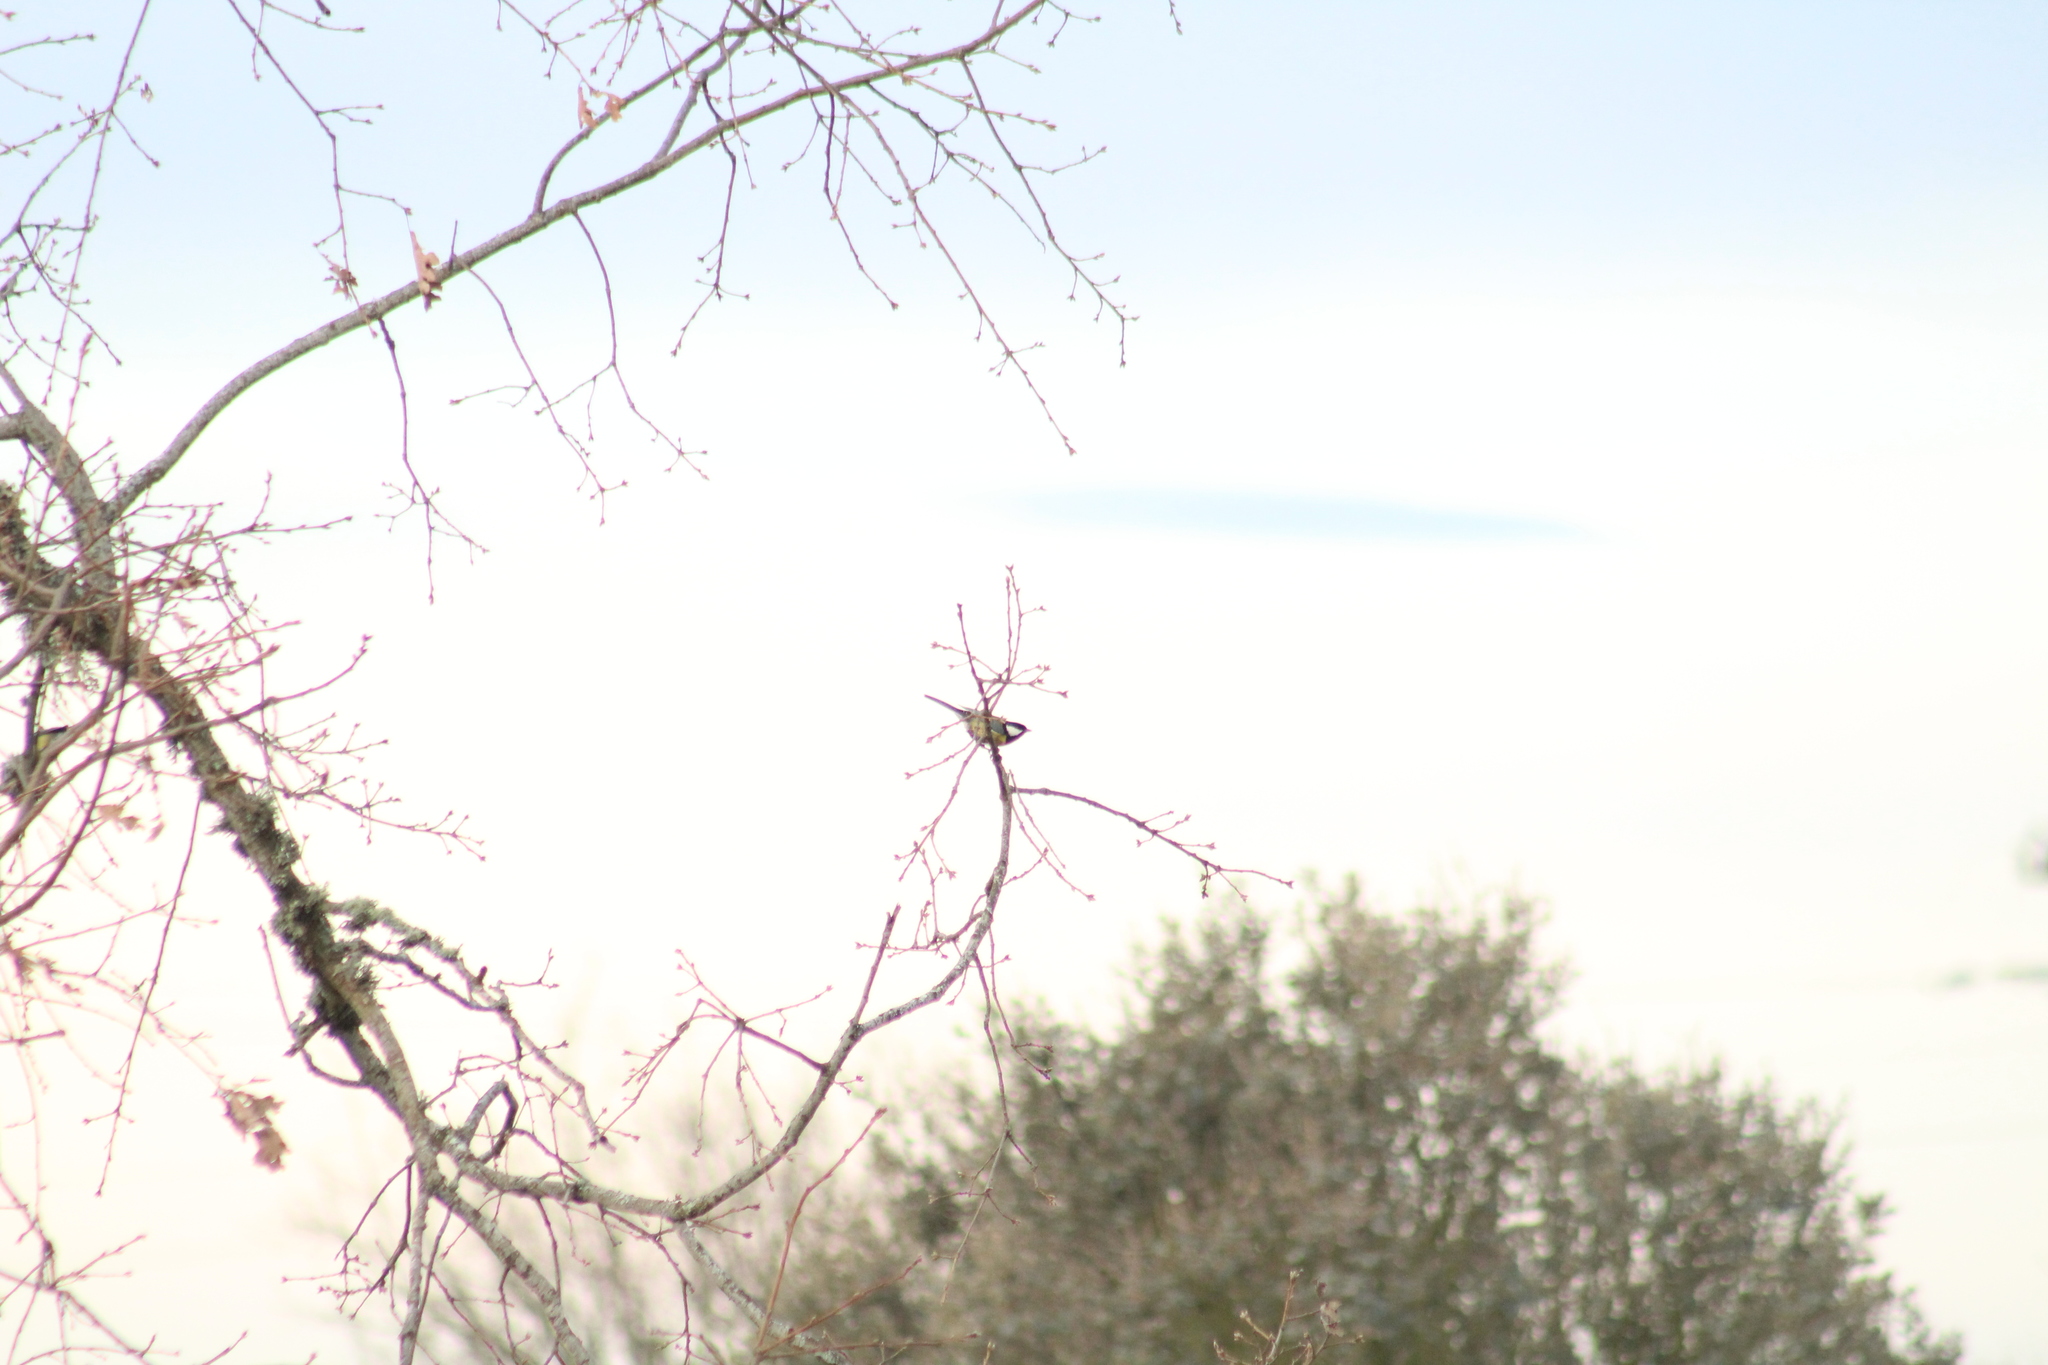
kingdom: Animalia
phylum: Chordata
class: Aves
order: Passeriformes
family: Paridae
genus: Parus
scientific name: Parus major
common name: Great tit
